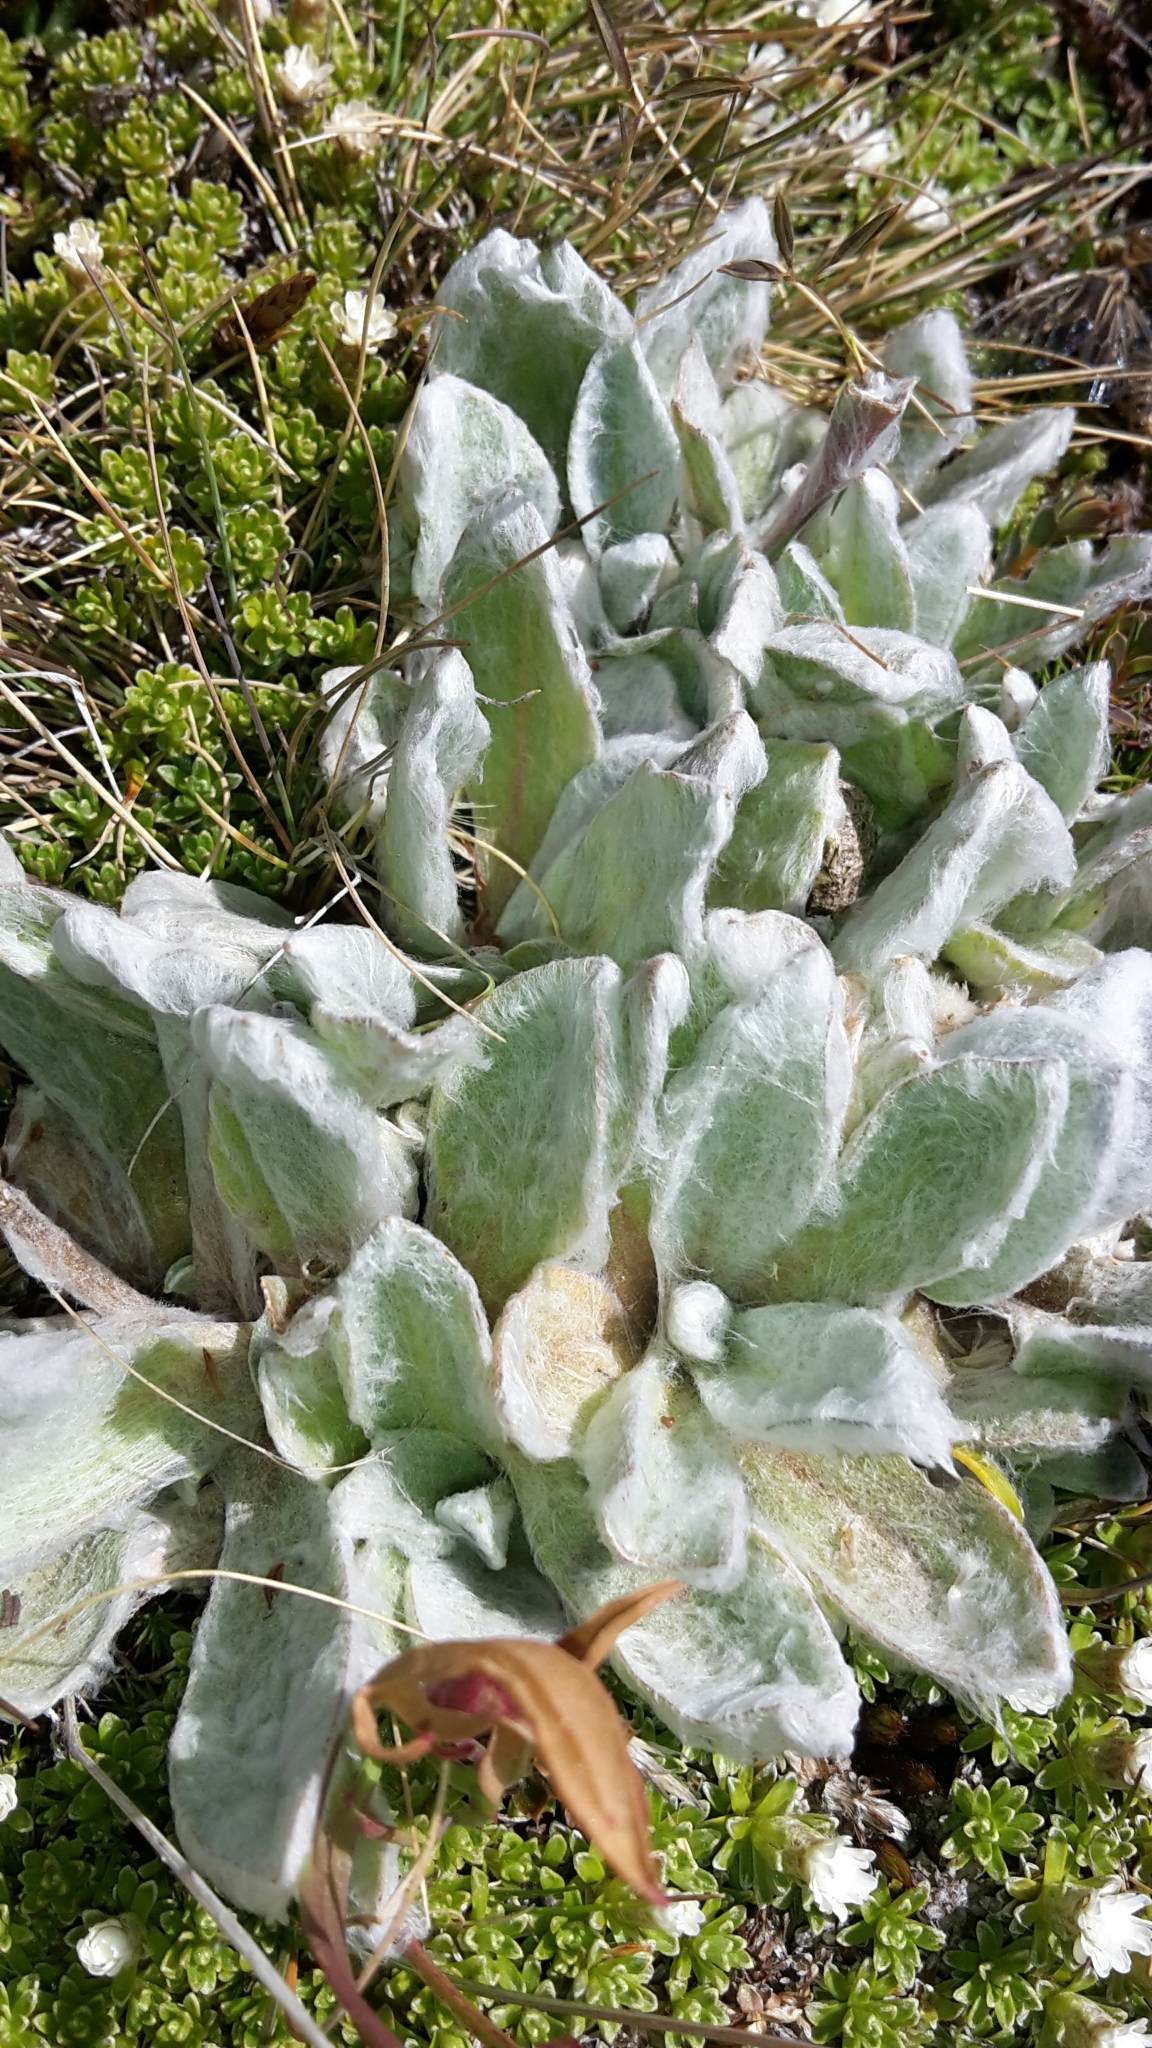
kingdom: Plantae
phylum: Tracheophyta
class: Magnoliopsida
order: Asterales
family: Asteraceae
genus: Craspedia
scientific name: Craspedia lanata
